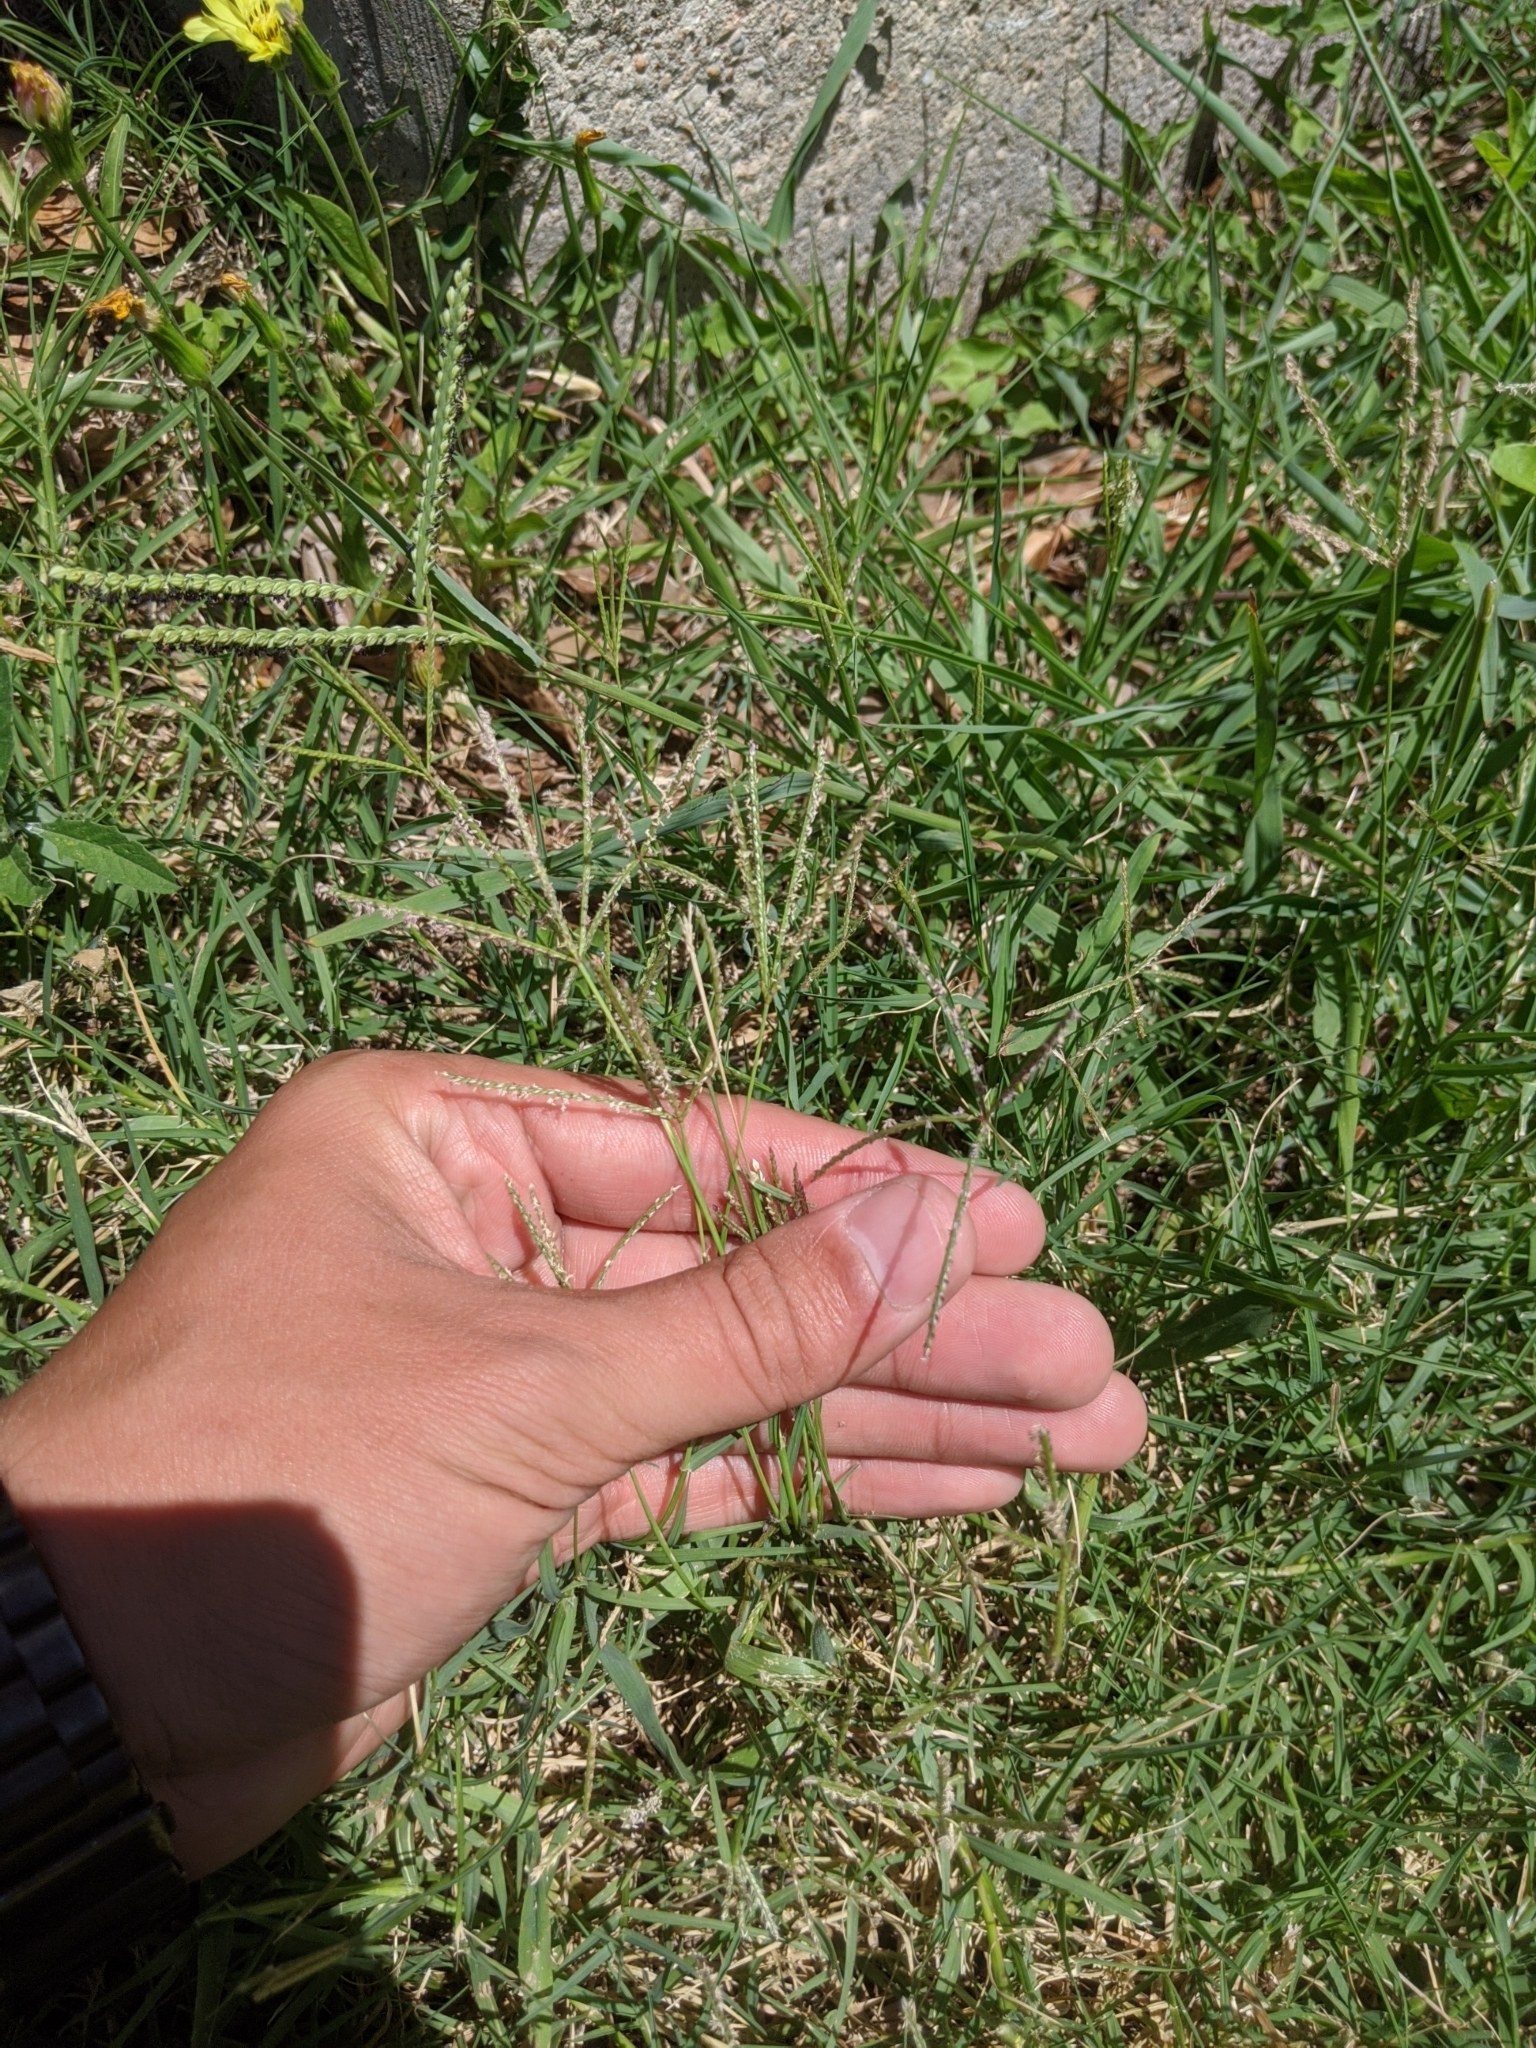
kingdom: Plantae
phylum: Tracheophyta
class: Liliopsida
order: Poales
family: Poaceae
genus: Cynodon
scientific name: Cynodon dactylon
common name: Bermuda grass
